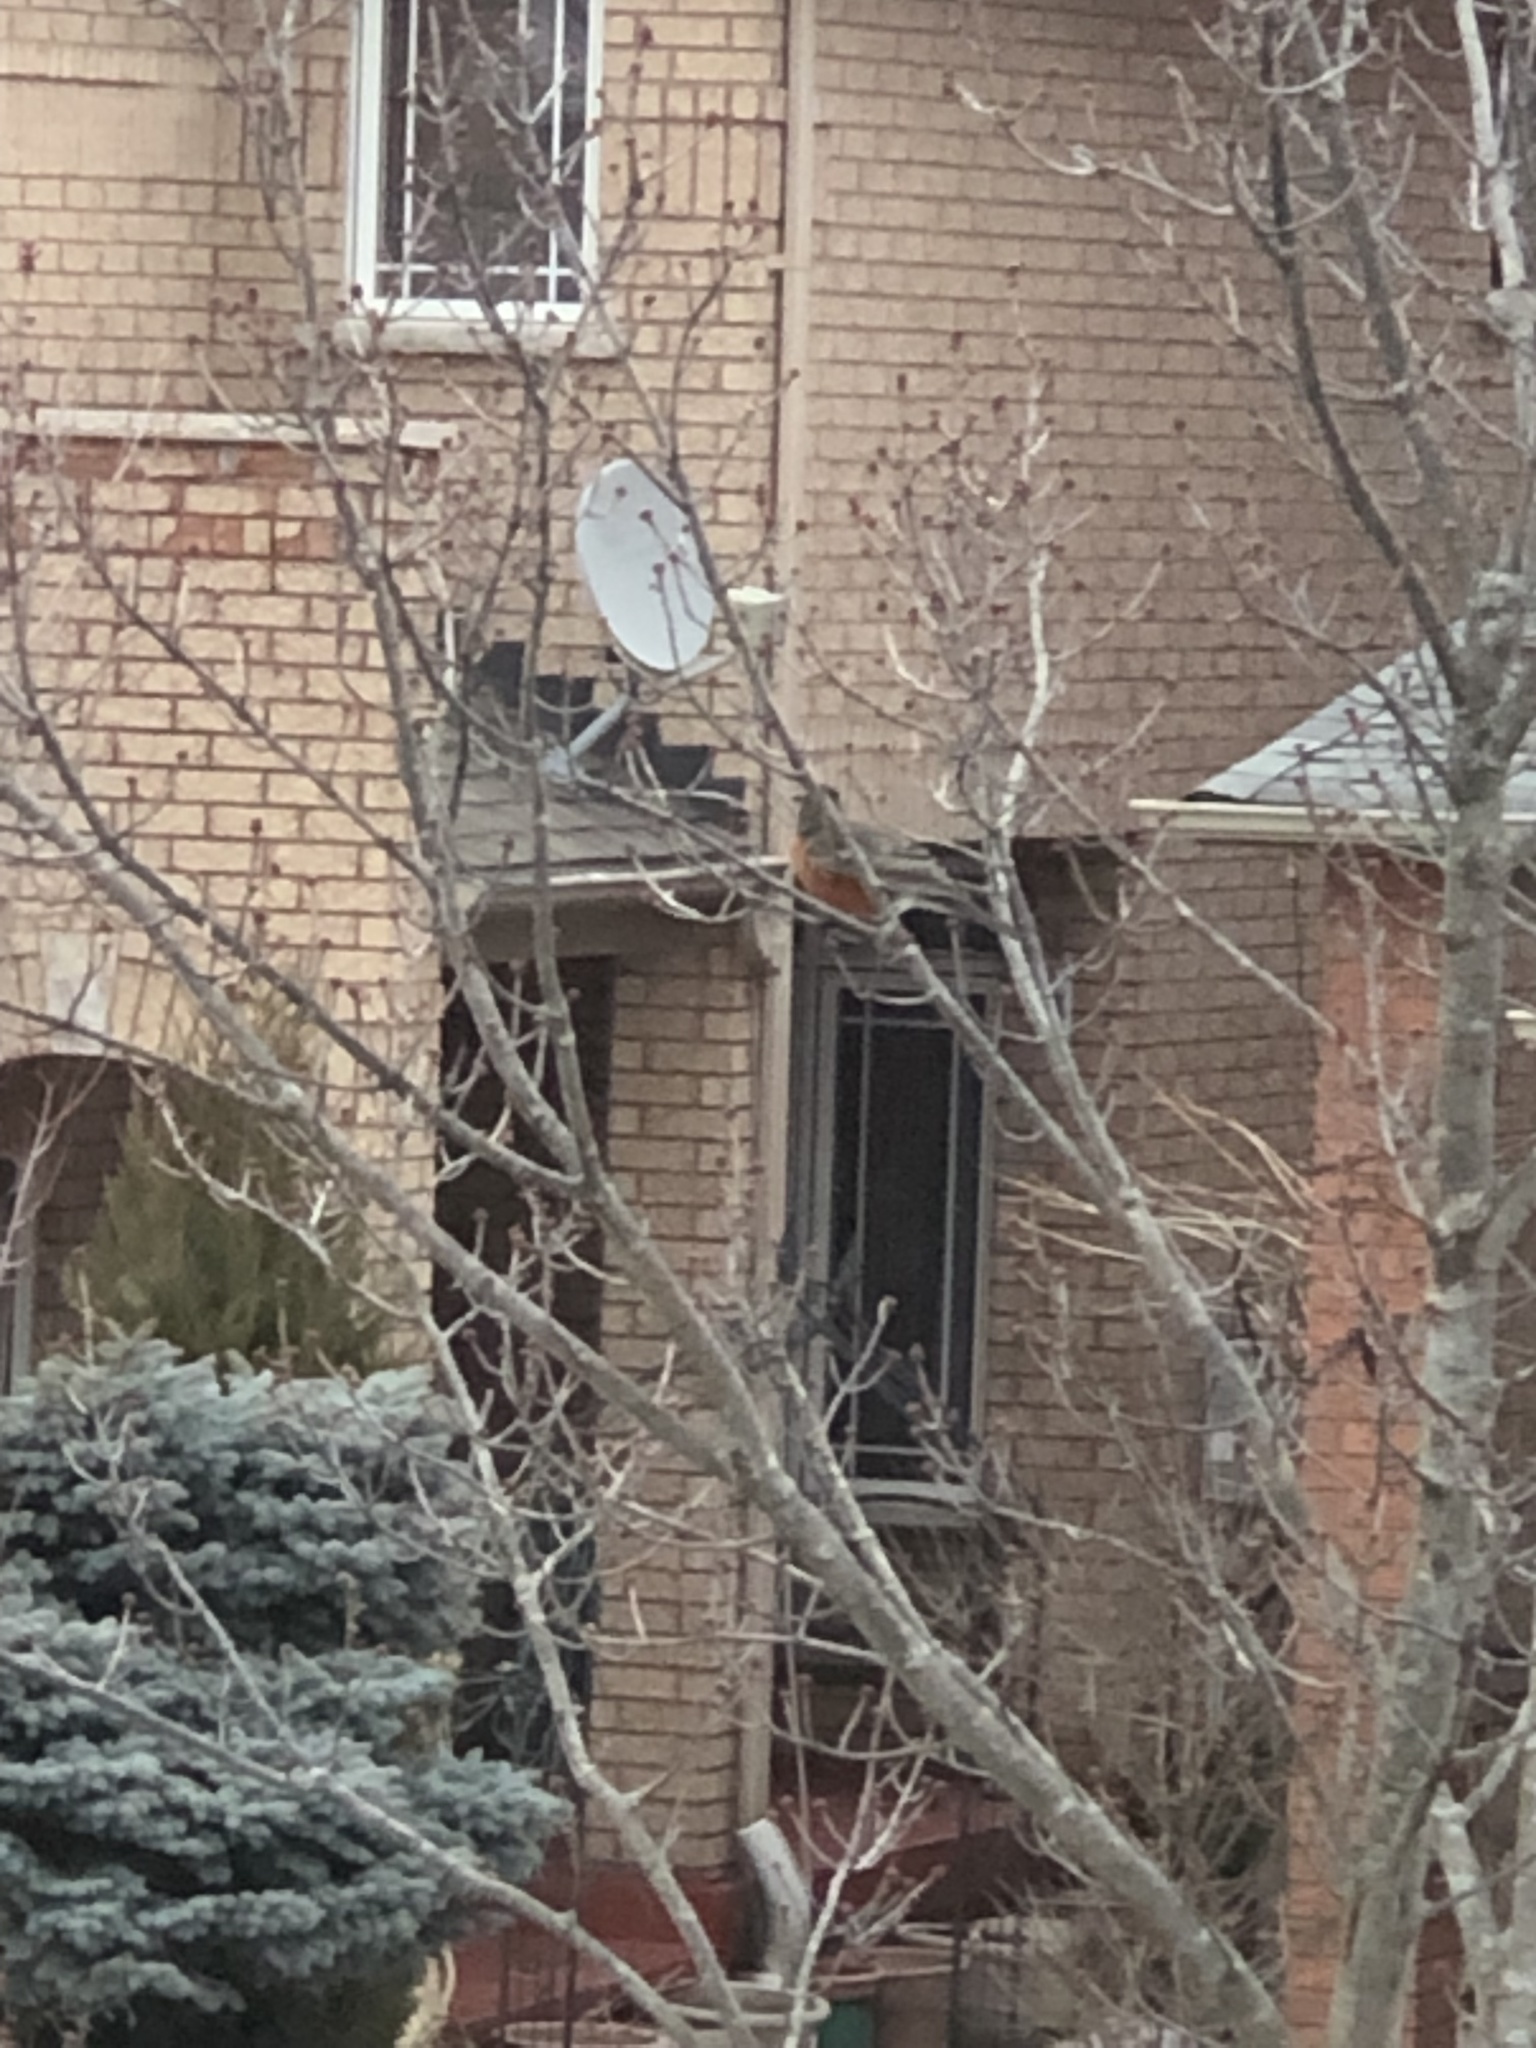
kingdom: Animalia
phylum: Chordata
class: Aves
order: Passeriformes
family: Turdidae
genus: Turdus
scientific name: Turdus migratorius
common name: American robin
